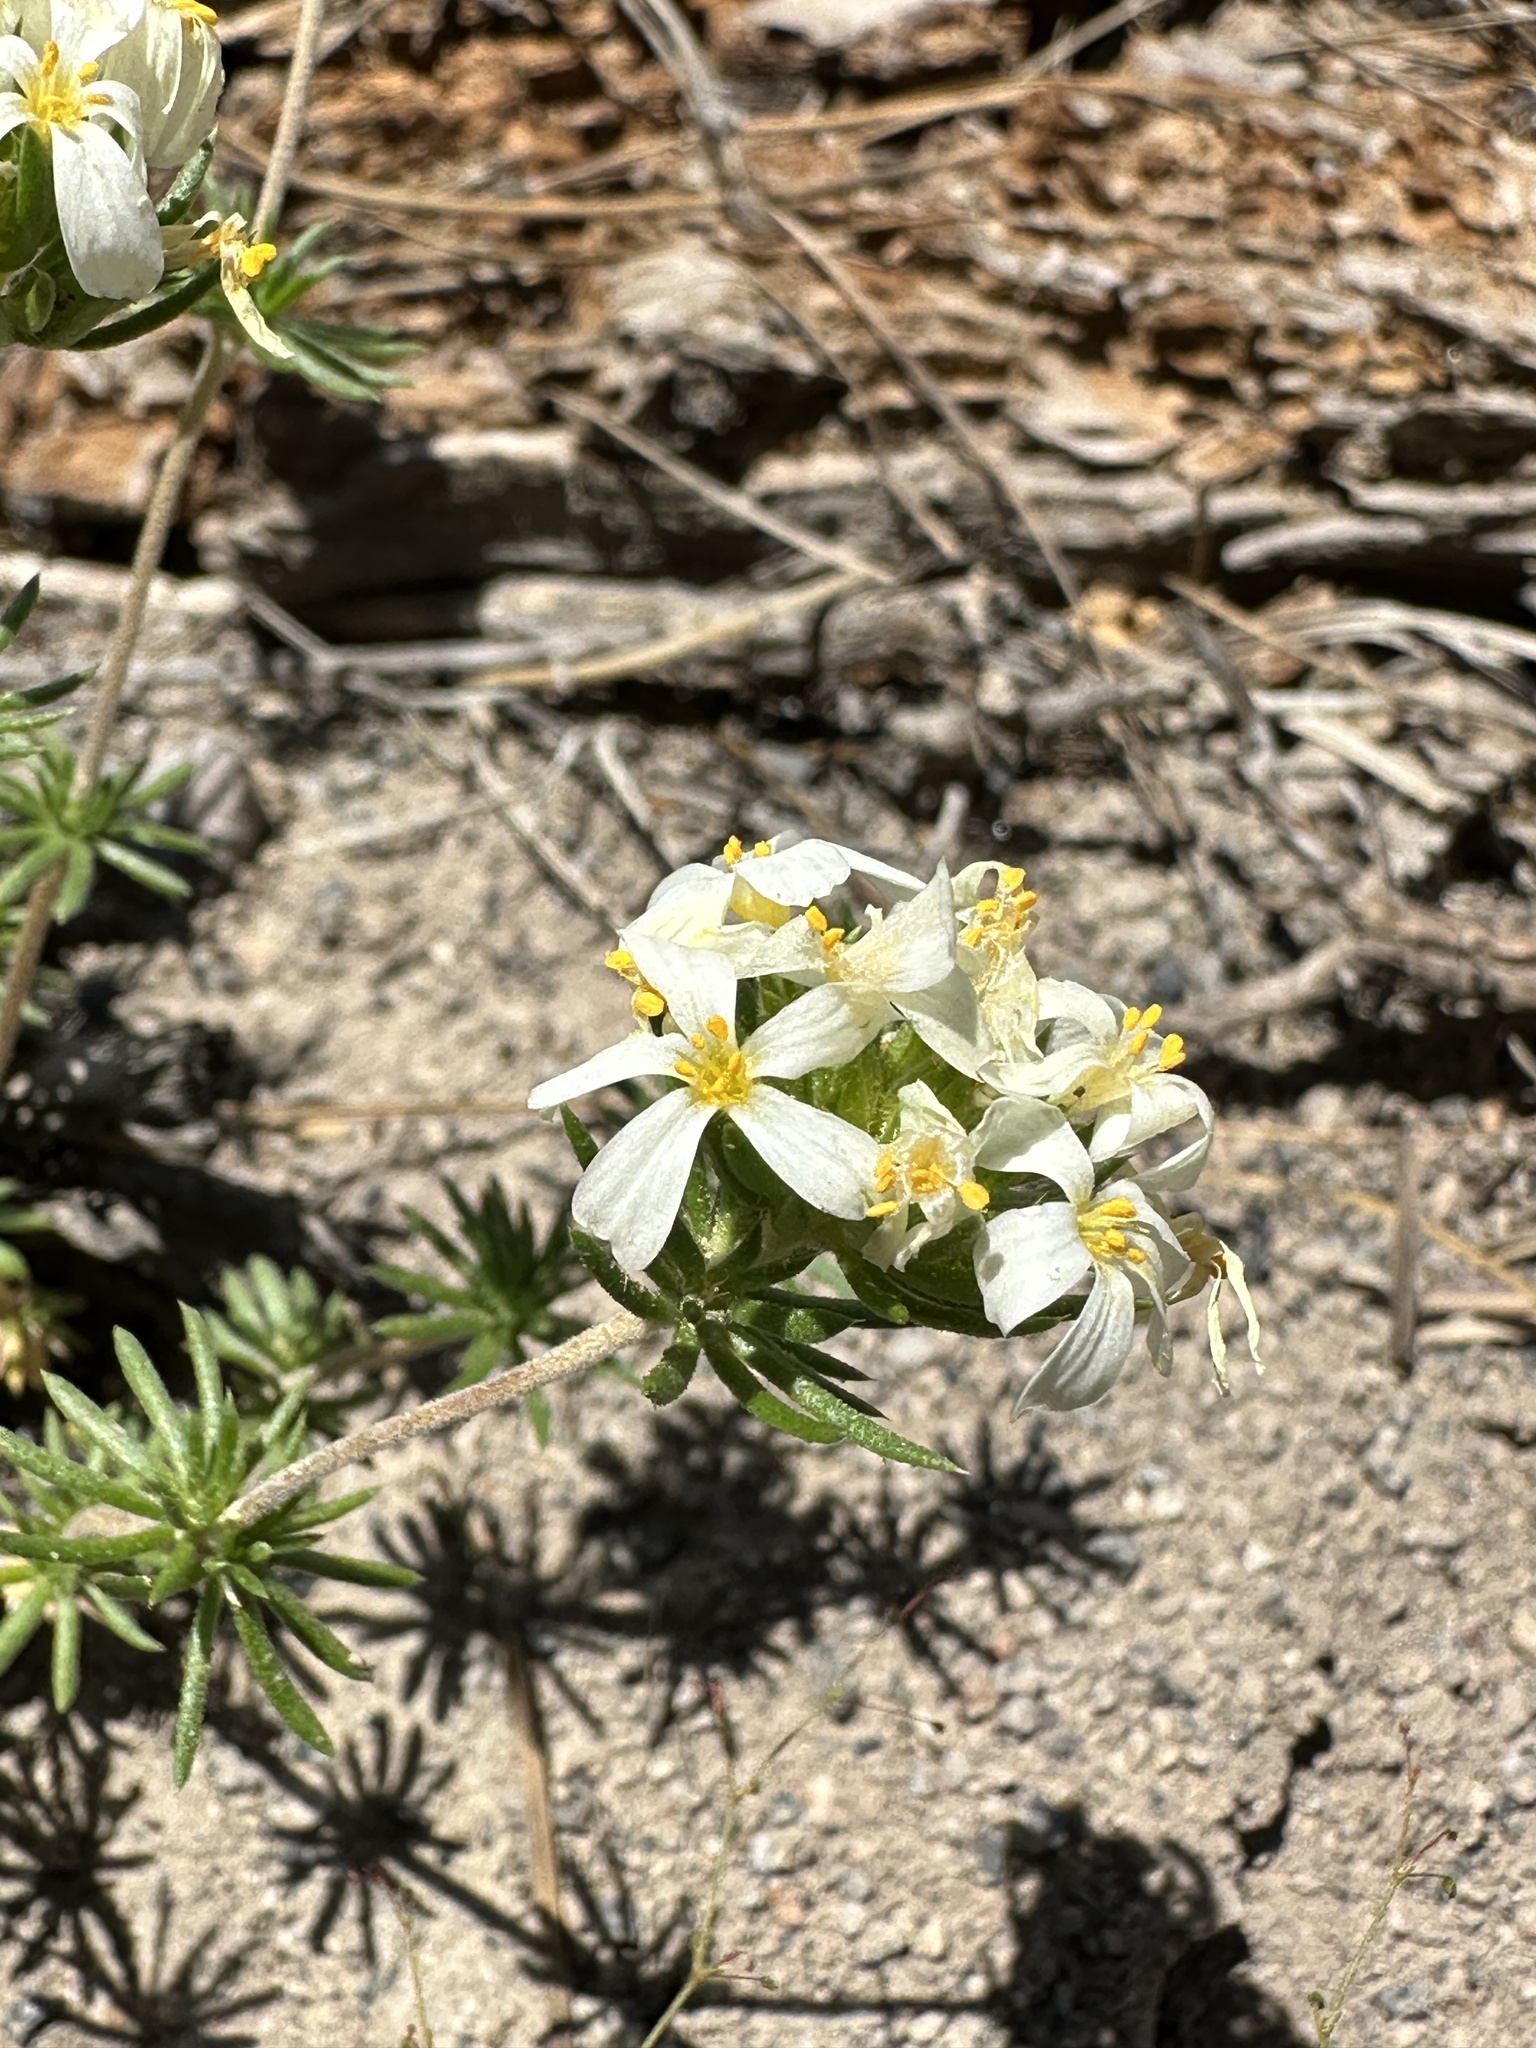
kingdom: Plantae
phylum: Tracheophyta
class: Magnoliopsida
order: Ericales
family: Polemoniaceae
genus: Leptosiphon
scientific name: Leptosiphon nuttallii
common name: Nuttall's linanthus
